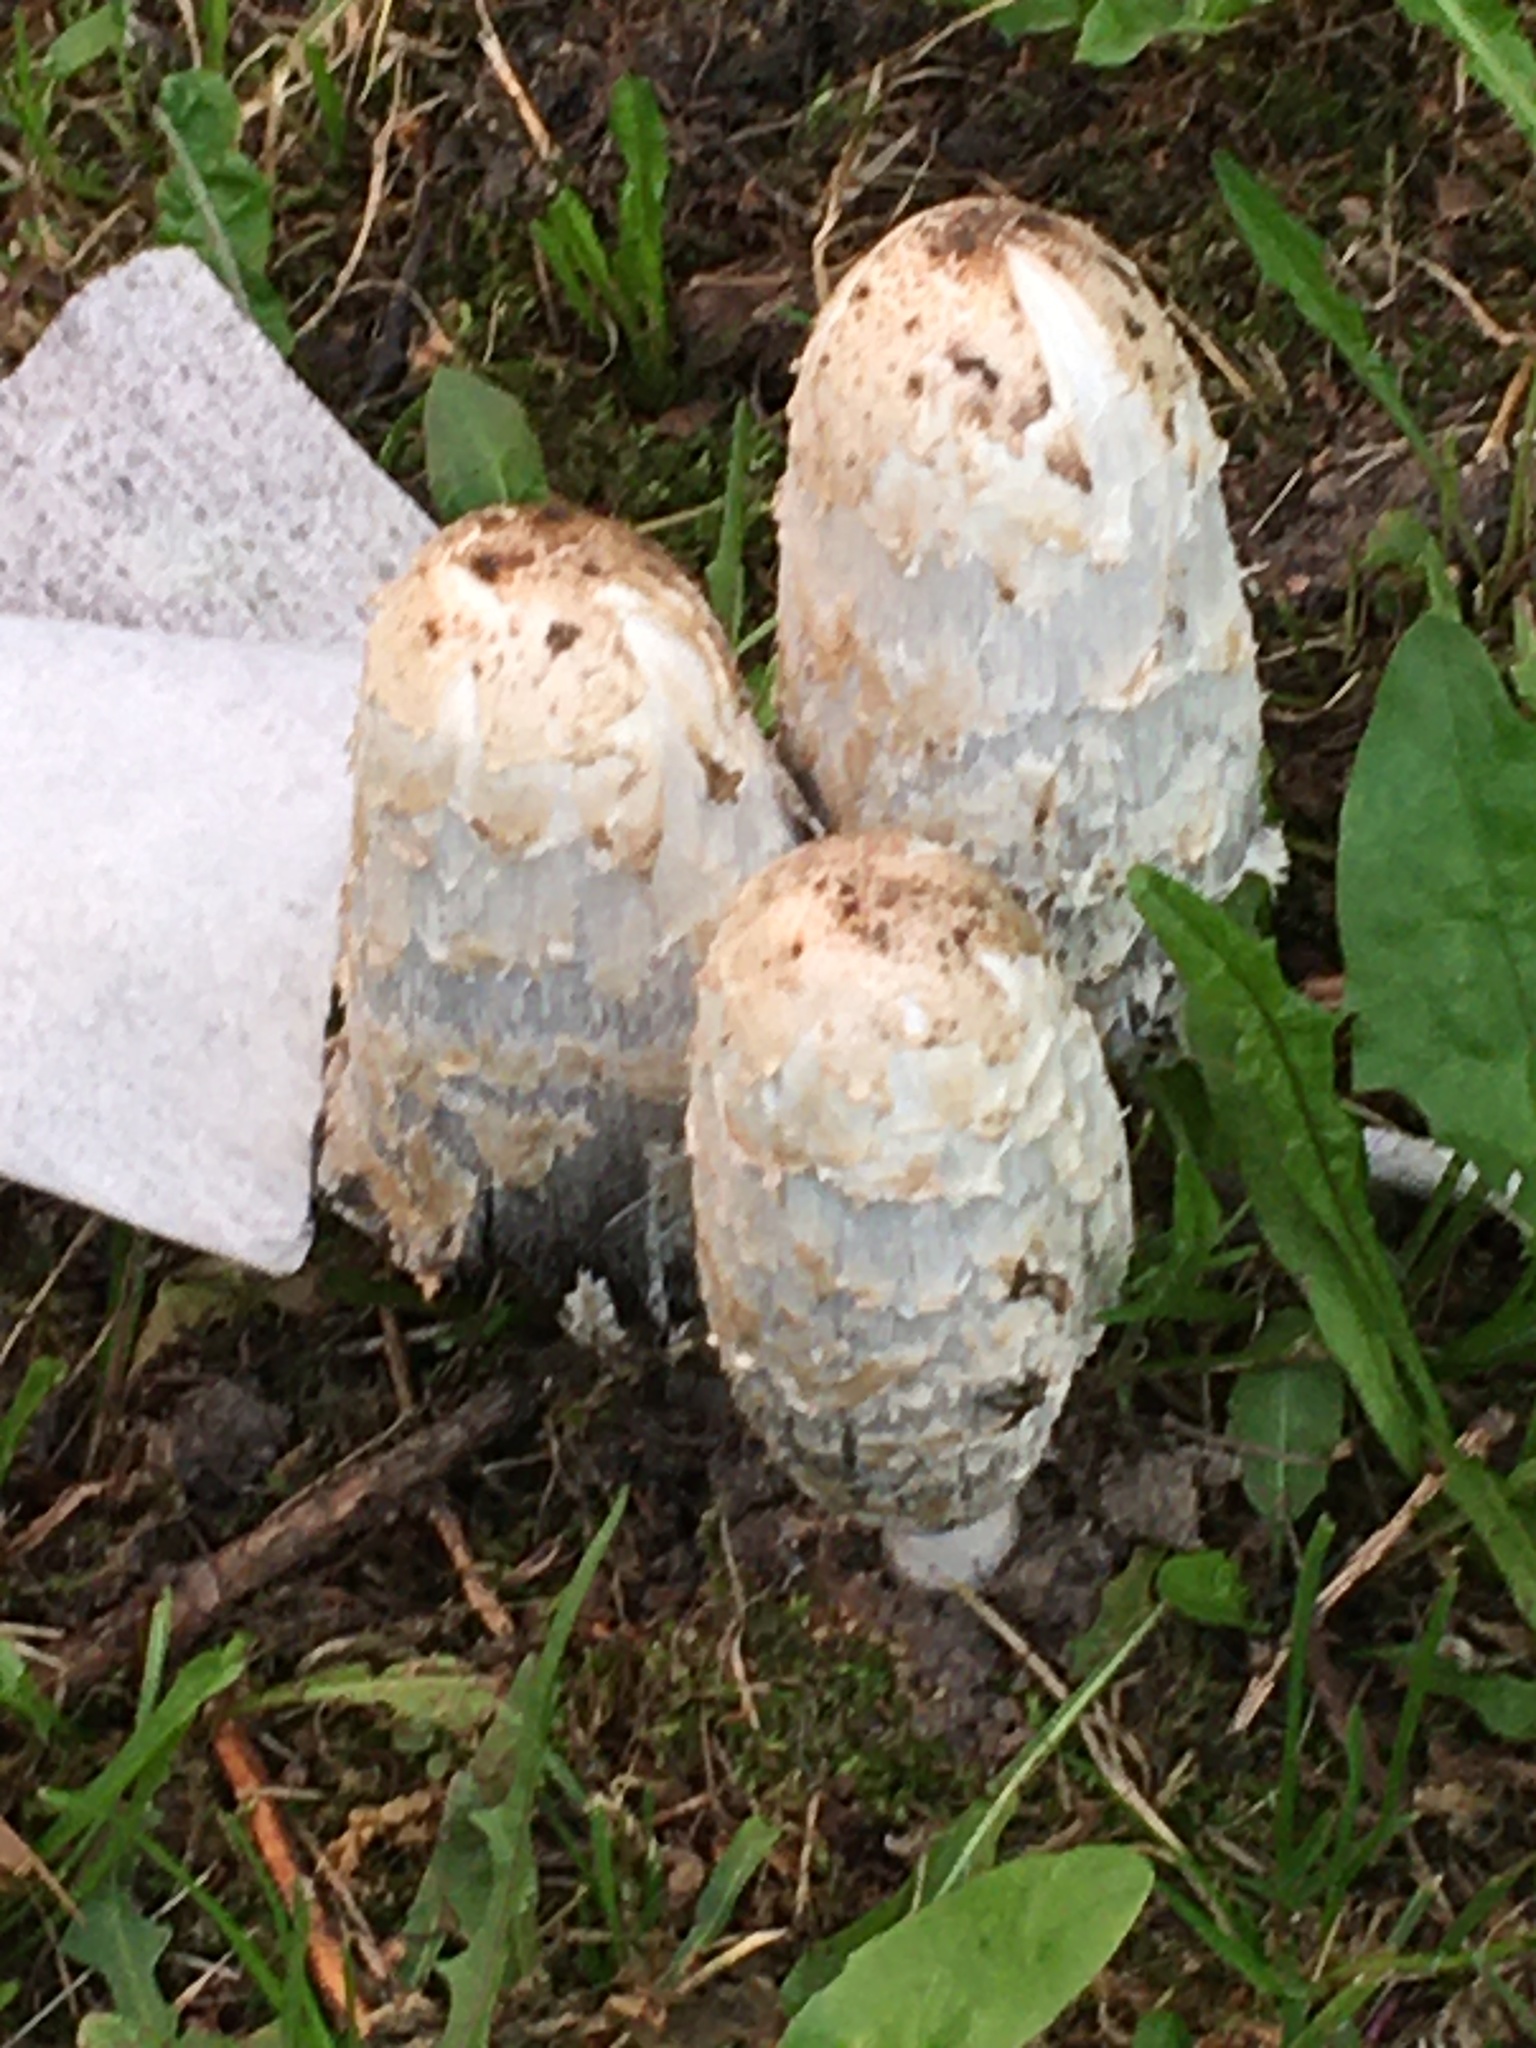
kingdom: Fungi
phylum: Basidiomycota
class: Agaricomycetes
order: Agaricales
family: Agaricaceae
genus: Coprinus
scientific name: Coprinus comatus
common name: Lawyer's wig
